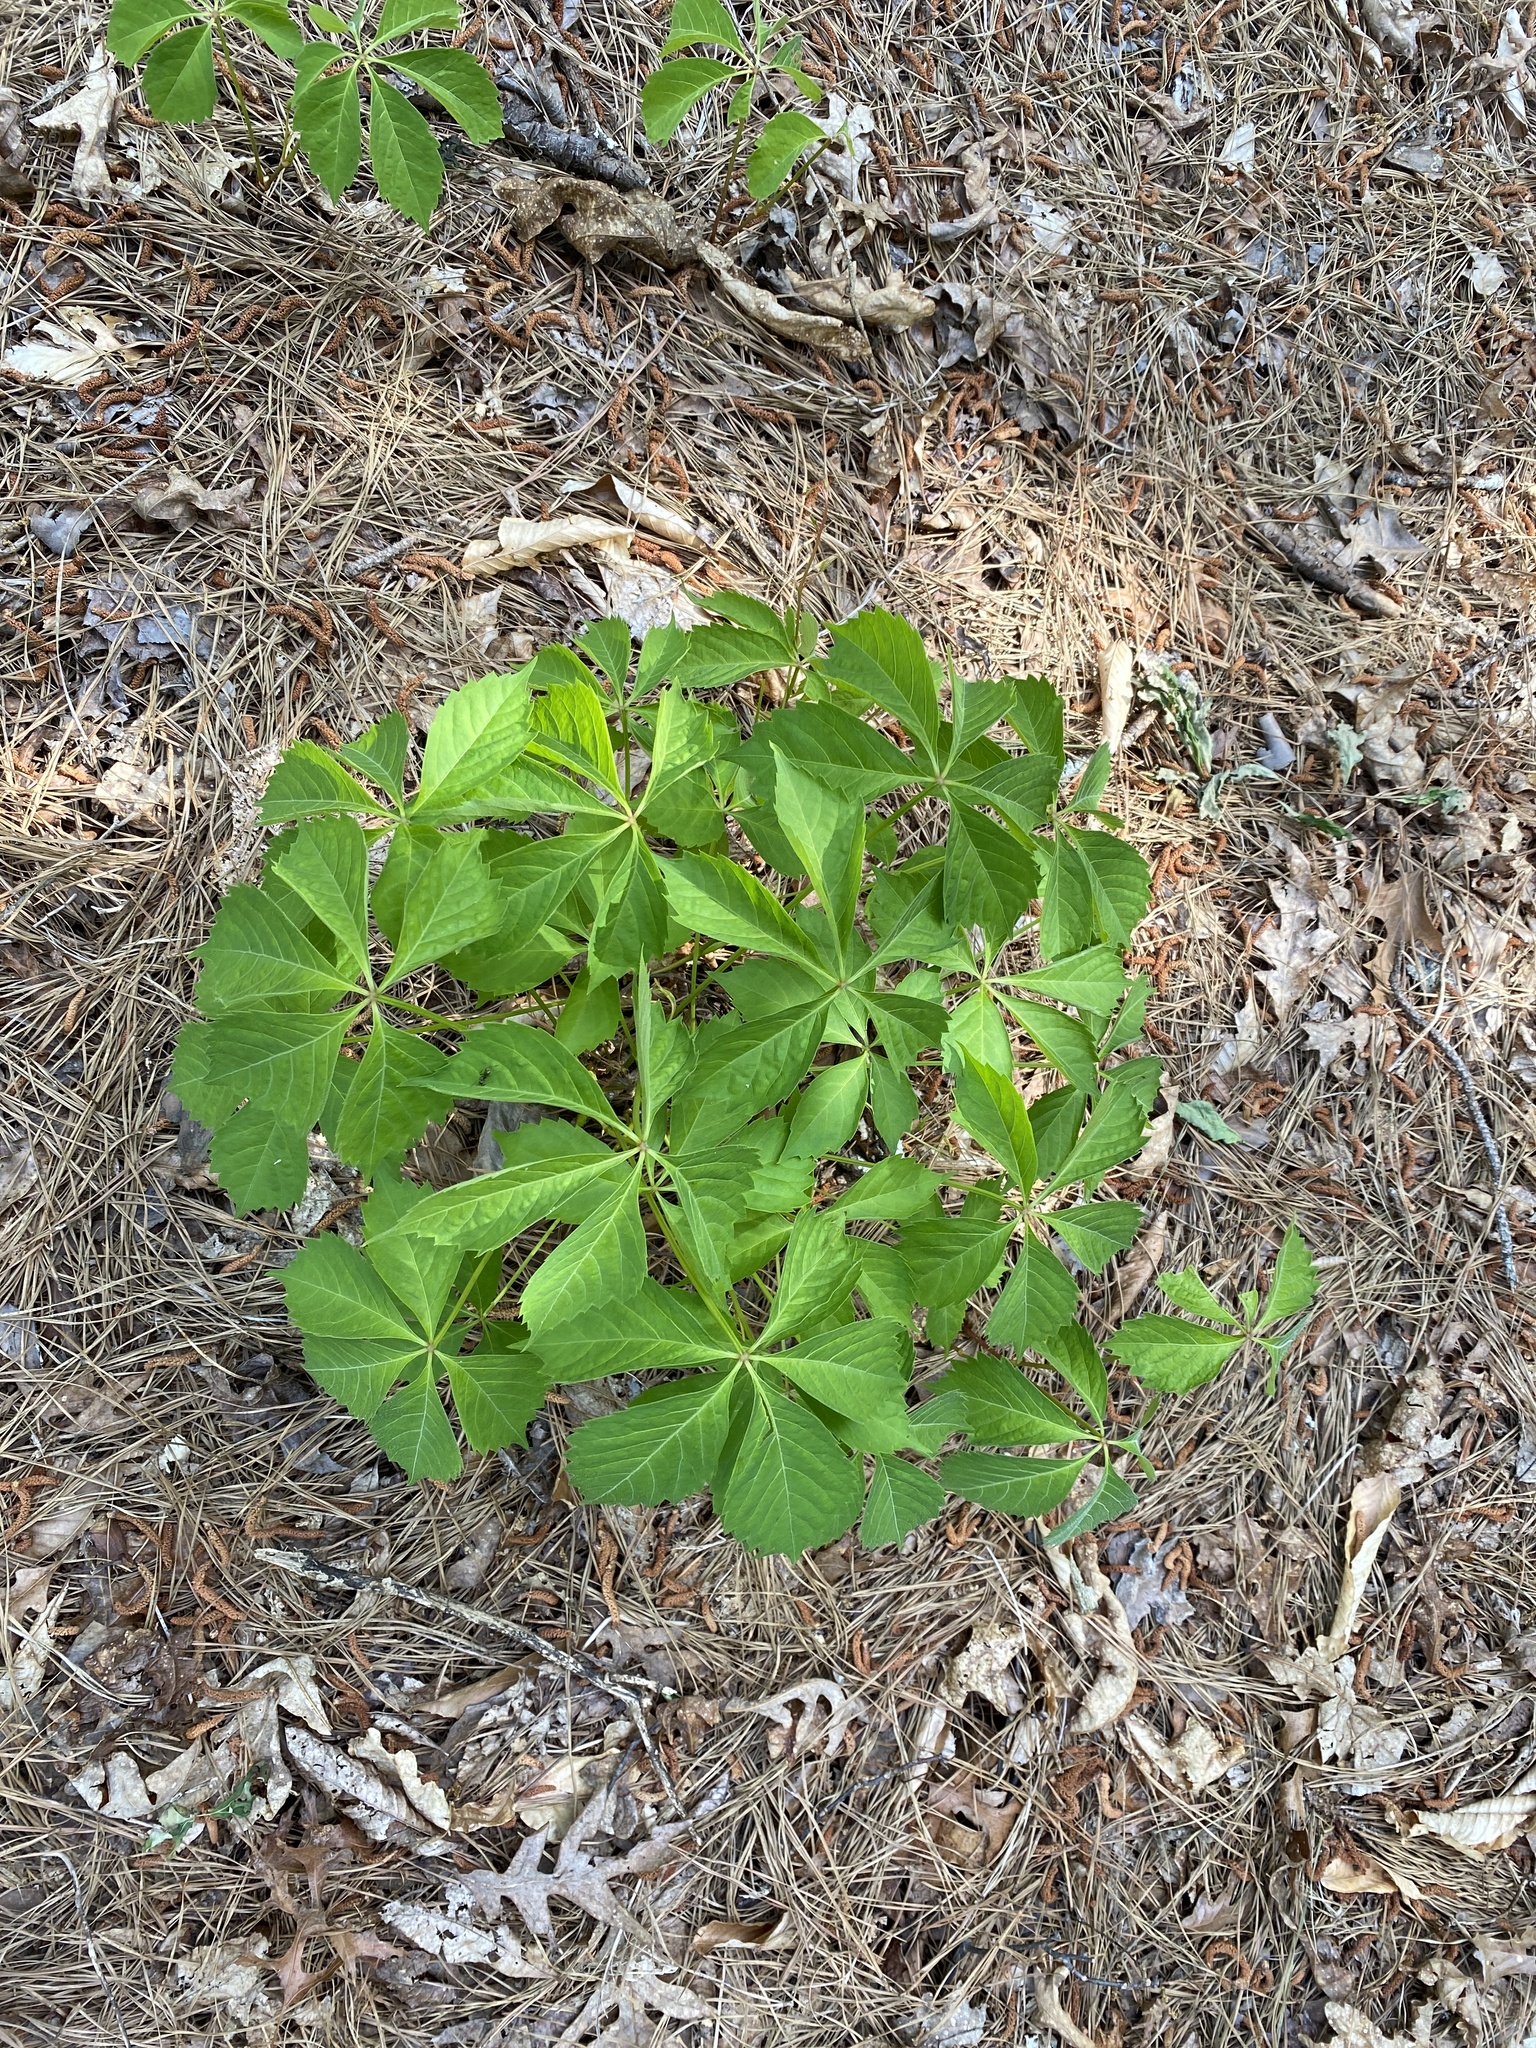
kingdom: Plantae
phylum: Tracheophyta
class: Magnoliopsida
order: Vitales
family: Vitaceae
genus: Parthenocissus
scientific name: Parthenocissus quinquefolia
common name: Virginia-creeper
